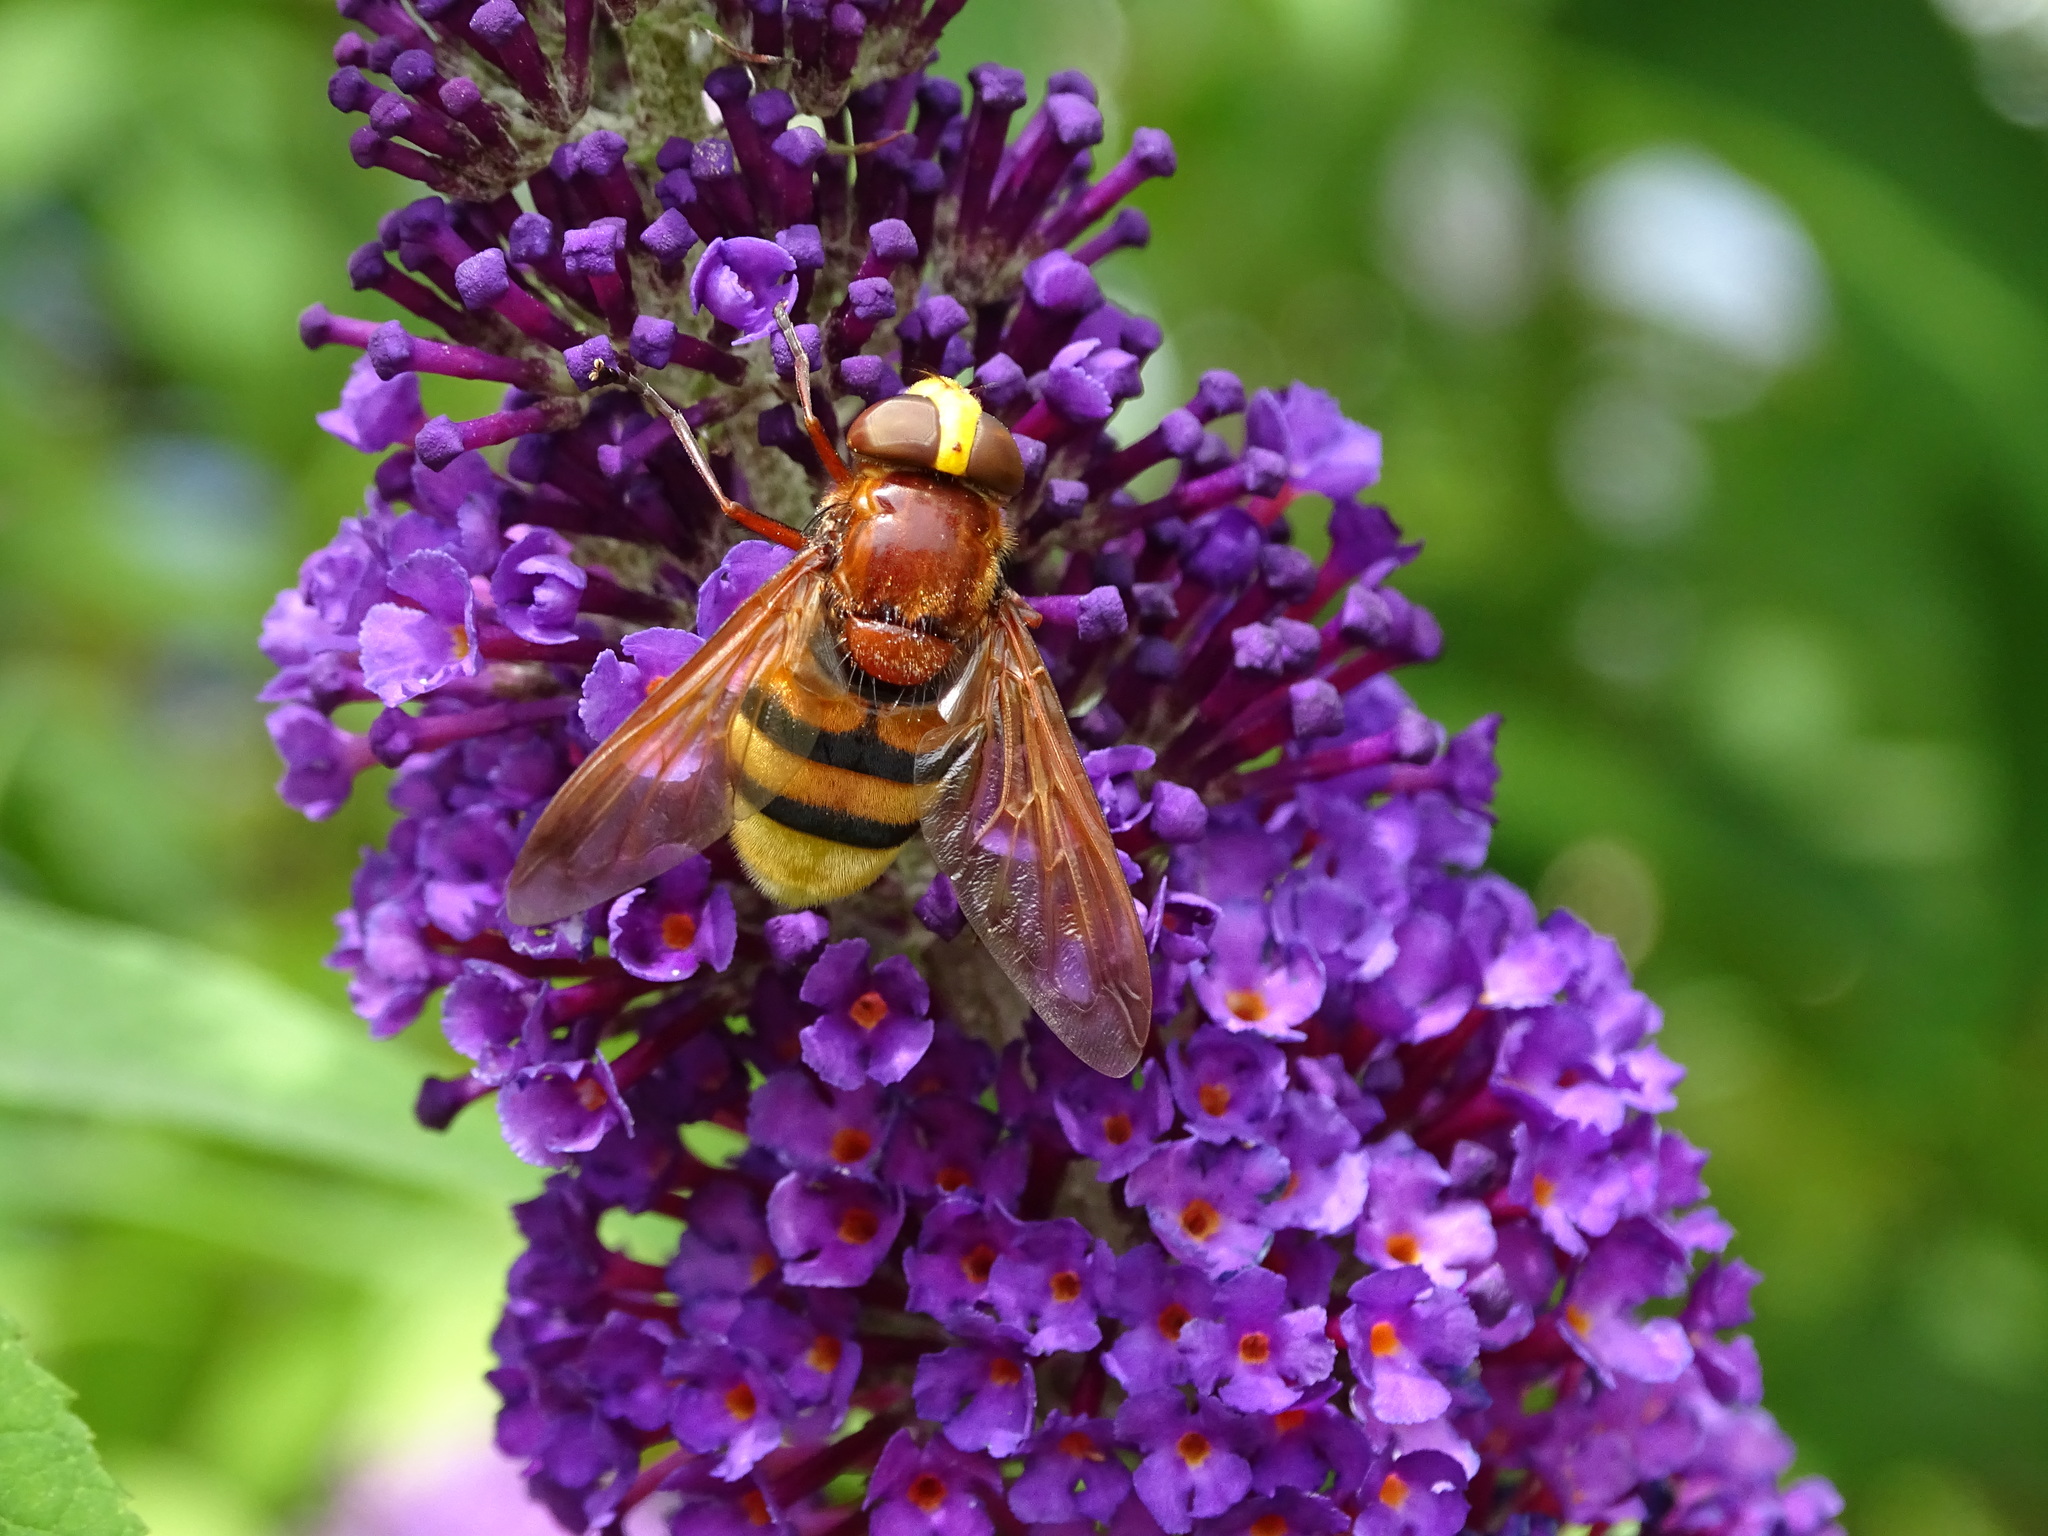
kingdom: Animalia
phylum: Arthropoda
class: Insecta
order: Diptera
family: Syrphidae
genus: Volucella
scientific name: Volucella zonaria
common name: Hornet hoverfly
